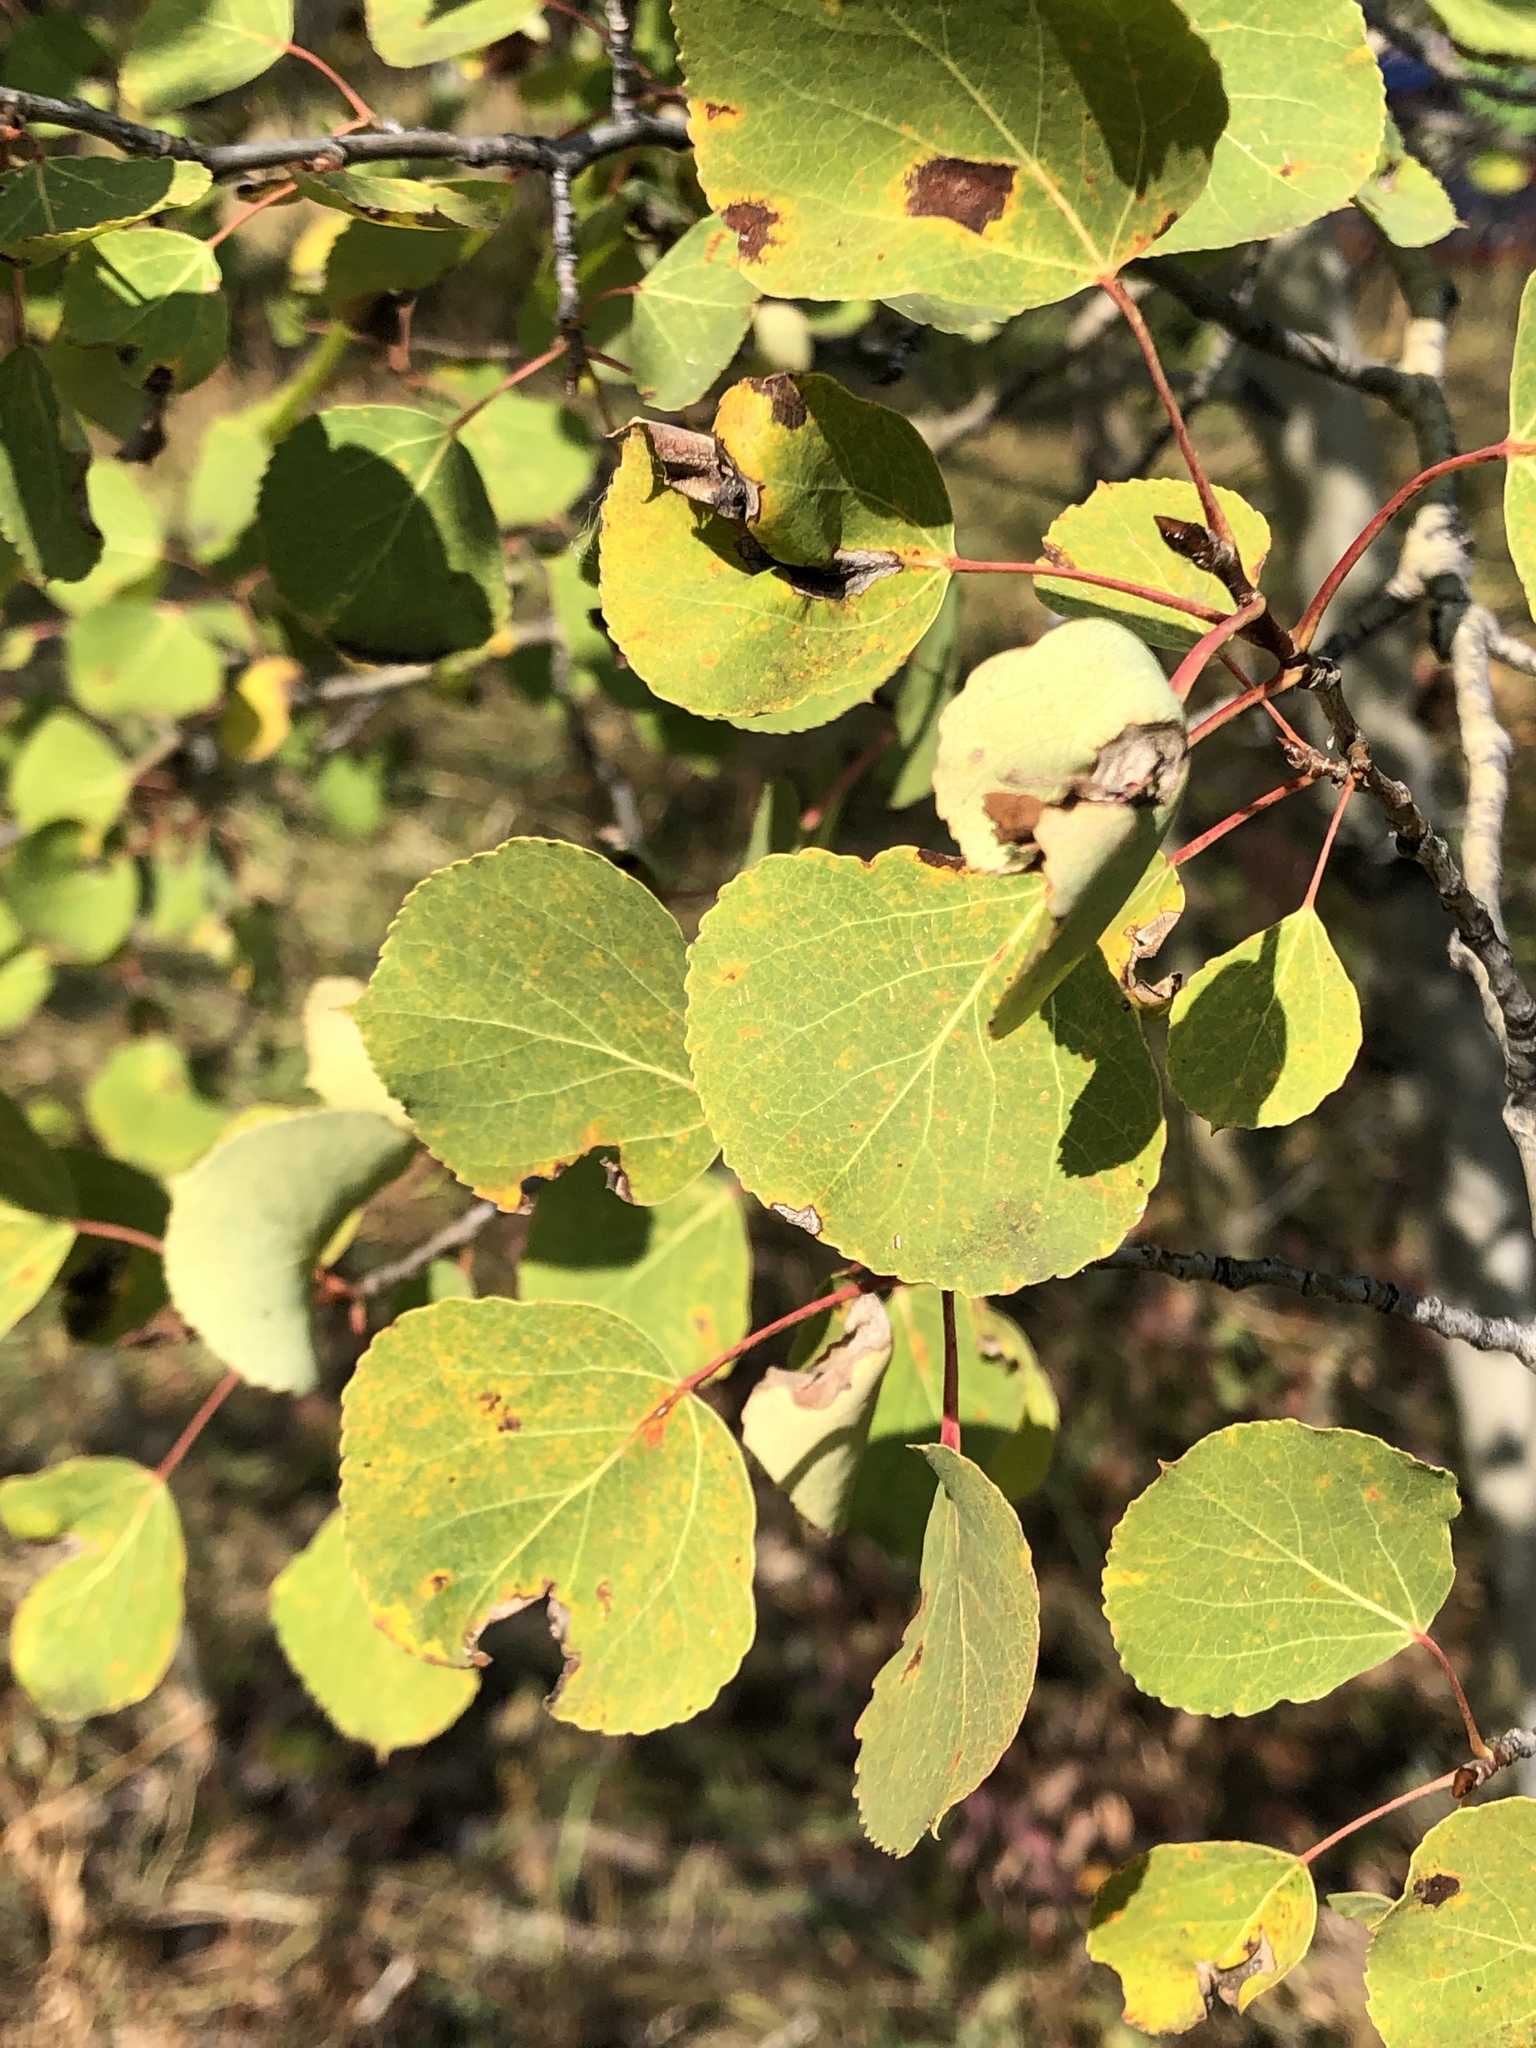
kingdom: Plantae
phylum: Tracheophyta
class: Magnoliopsida
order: Malpighiales
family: Salicaceae
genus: Populus
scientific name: Populus tremuloides
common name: Quaking aspen
